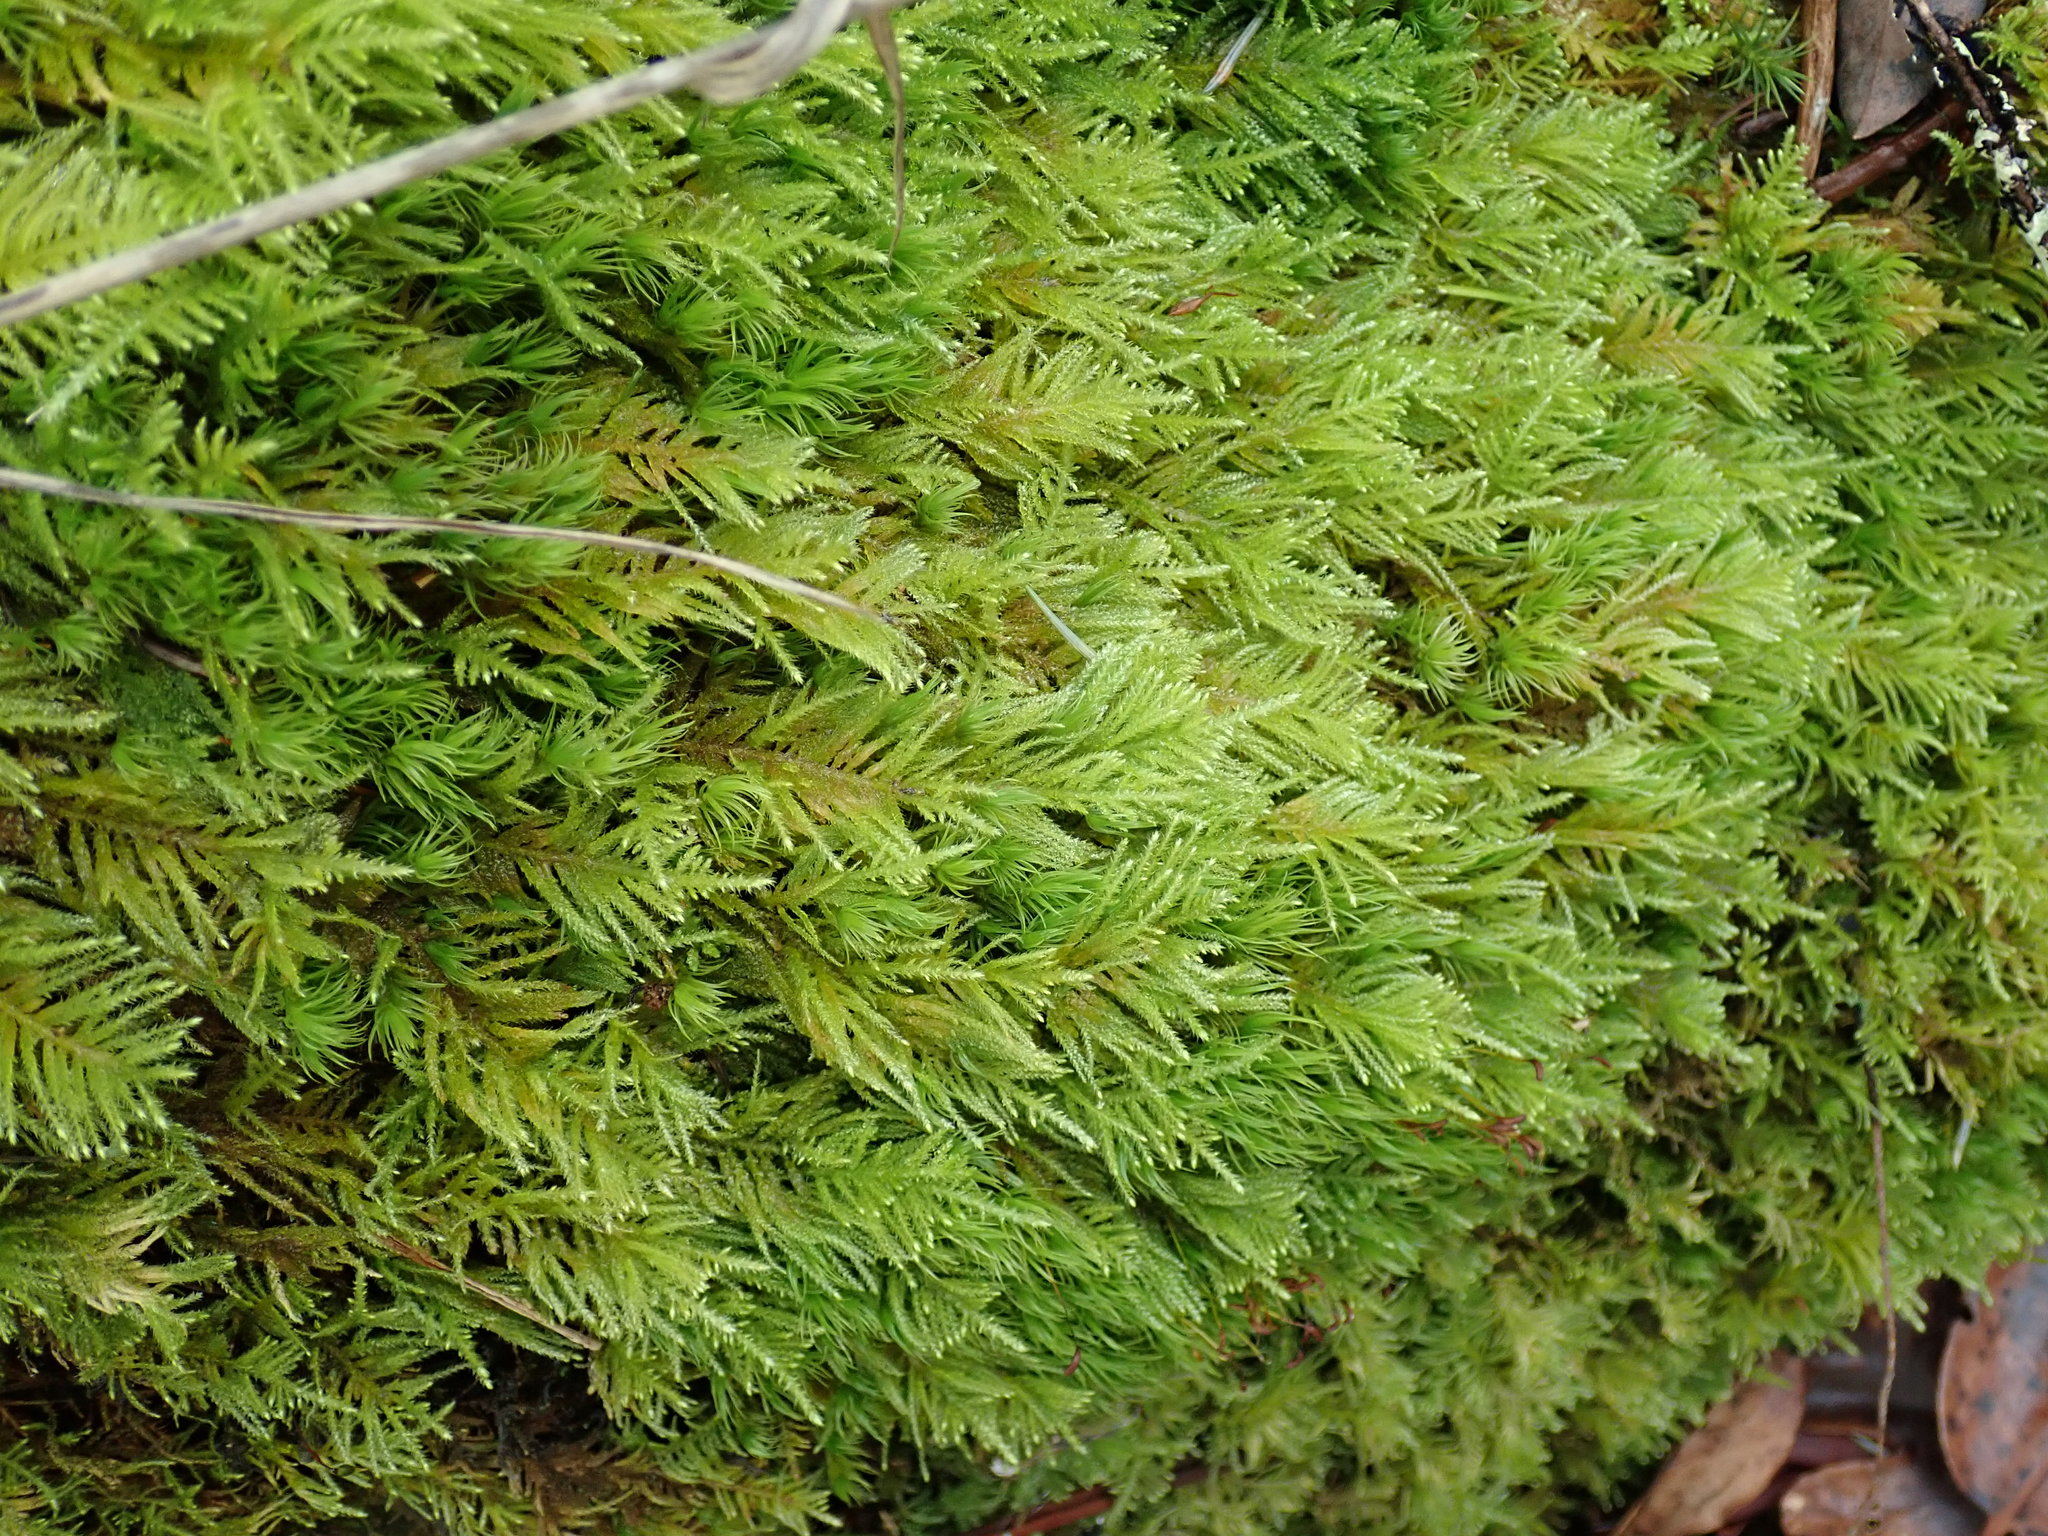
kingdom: Plantae
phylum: Bryophyta
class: Bryopsida
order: Hypnales
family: Brachytheciaceae
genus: Kindbergia
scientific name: Kindbergia oregana
